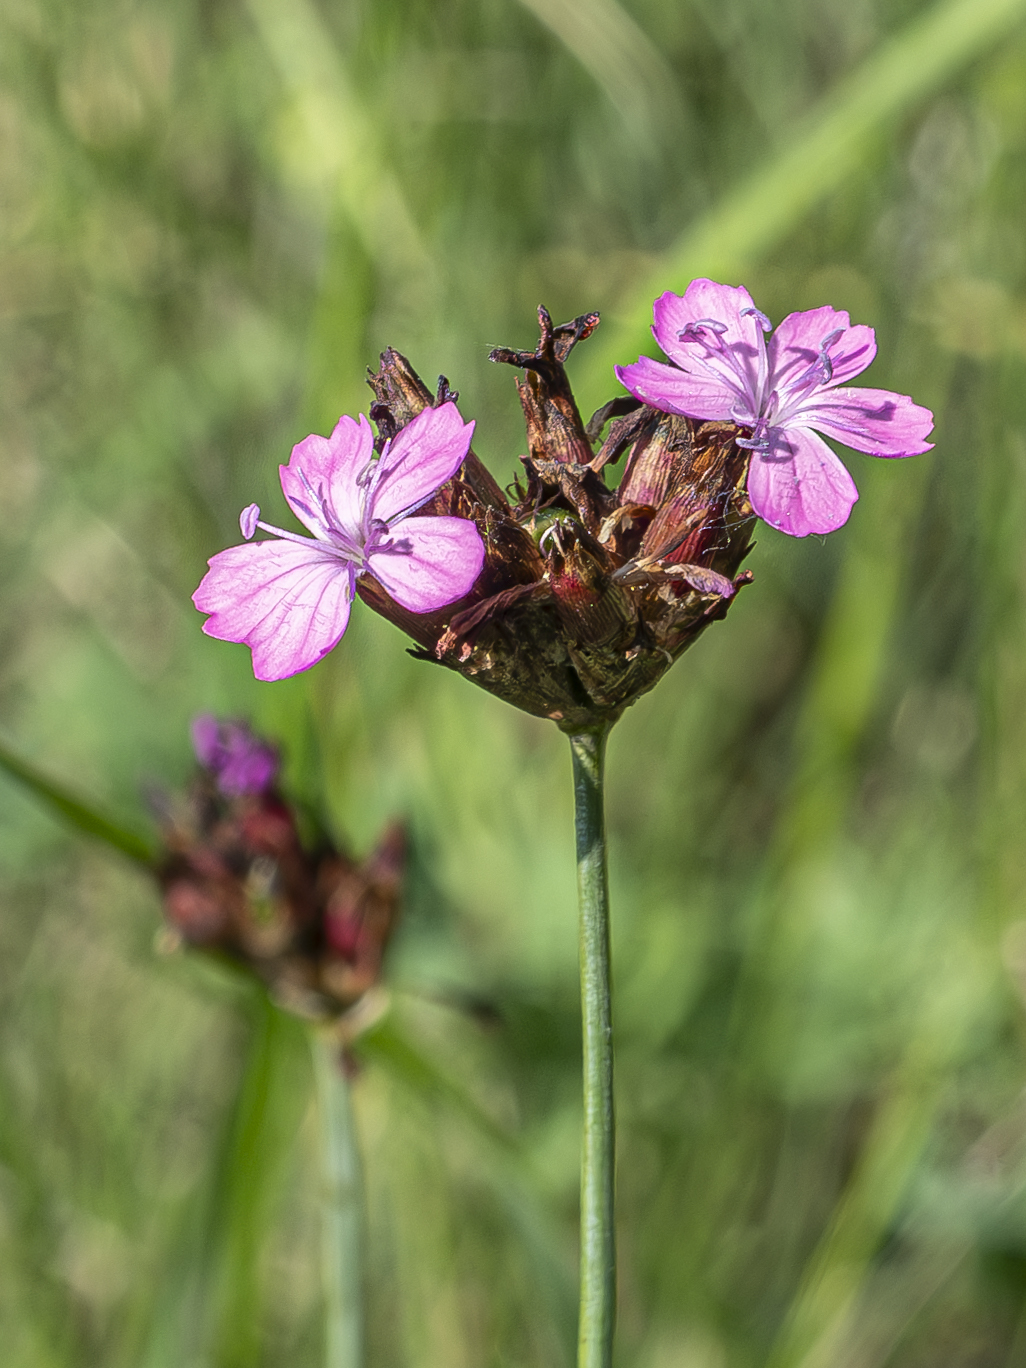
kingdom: Plantae
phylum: Tracheophyta
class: Magnoliopsida
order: Caryophyllales
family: Caryophyllaceae
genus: Dianthus
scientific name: Dianthus pontederae
